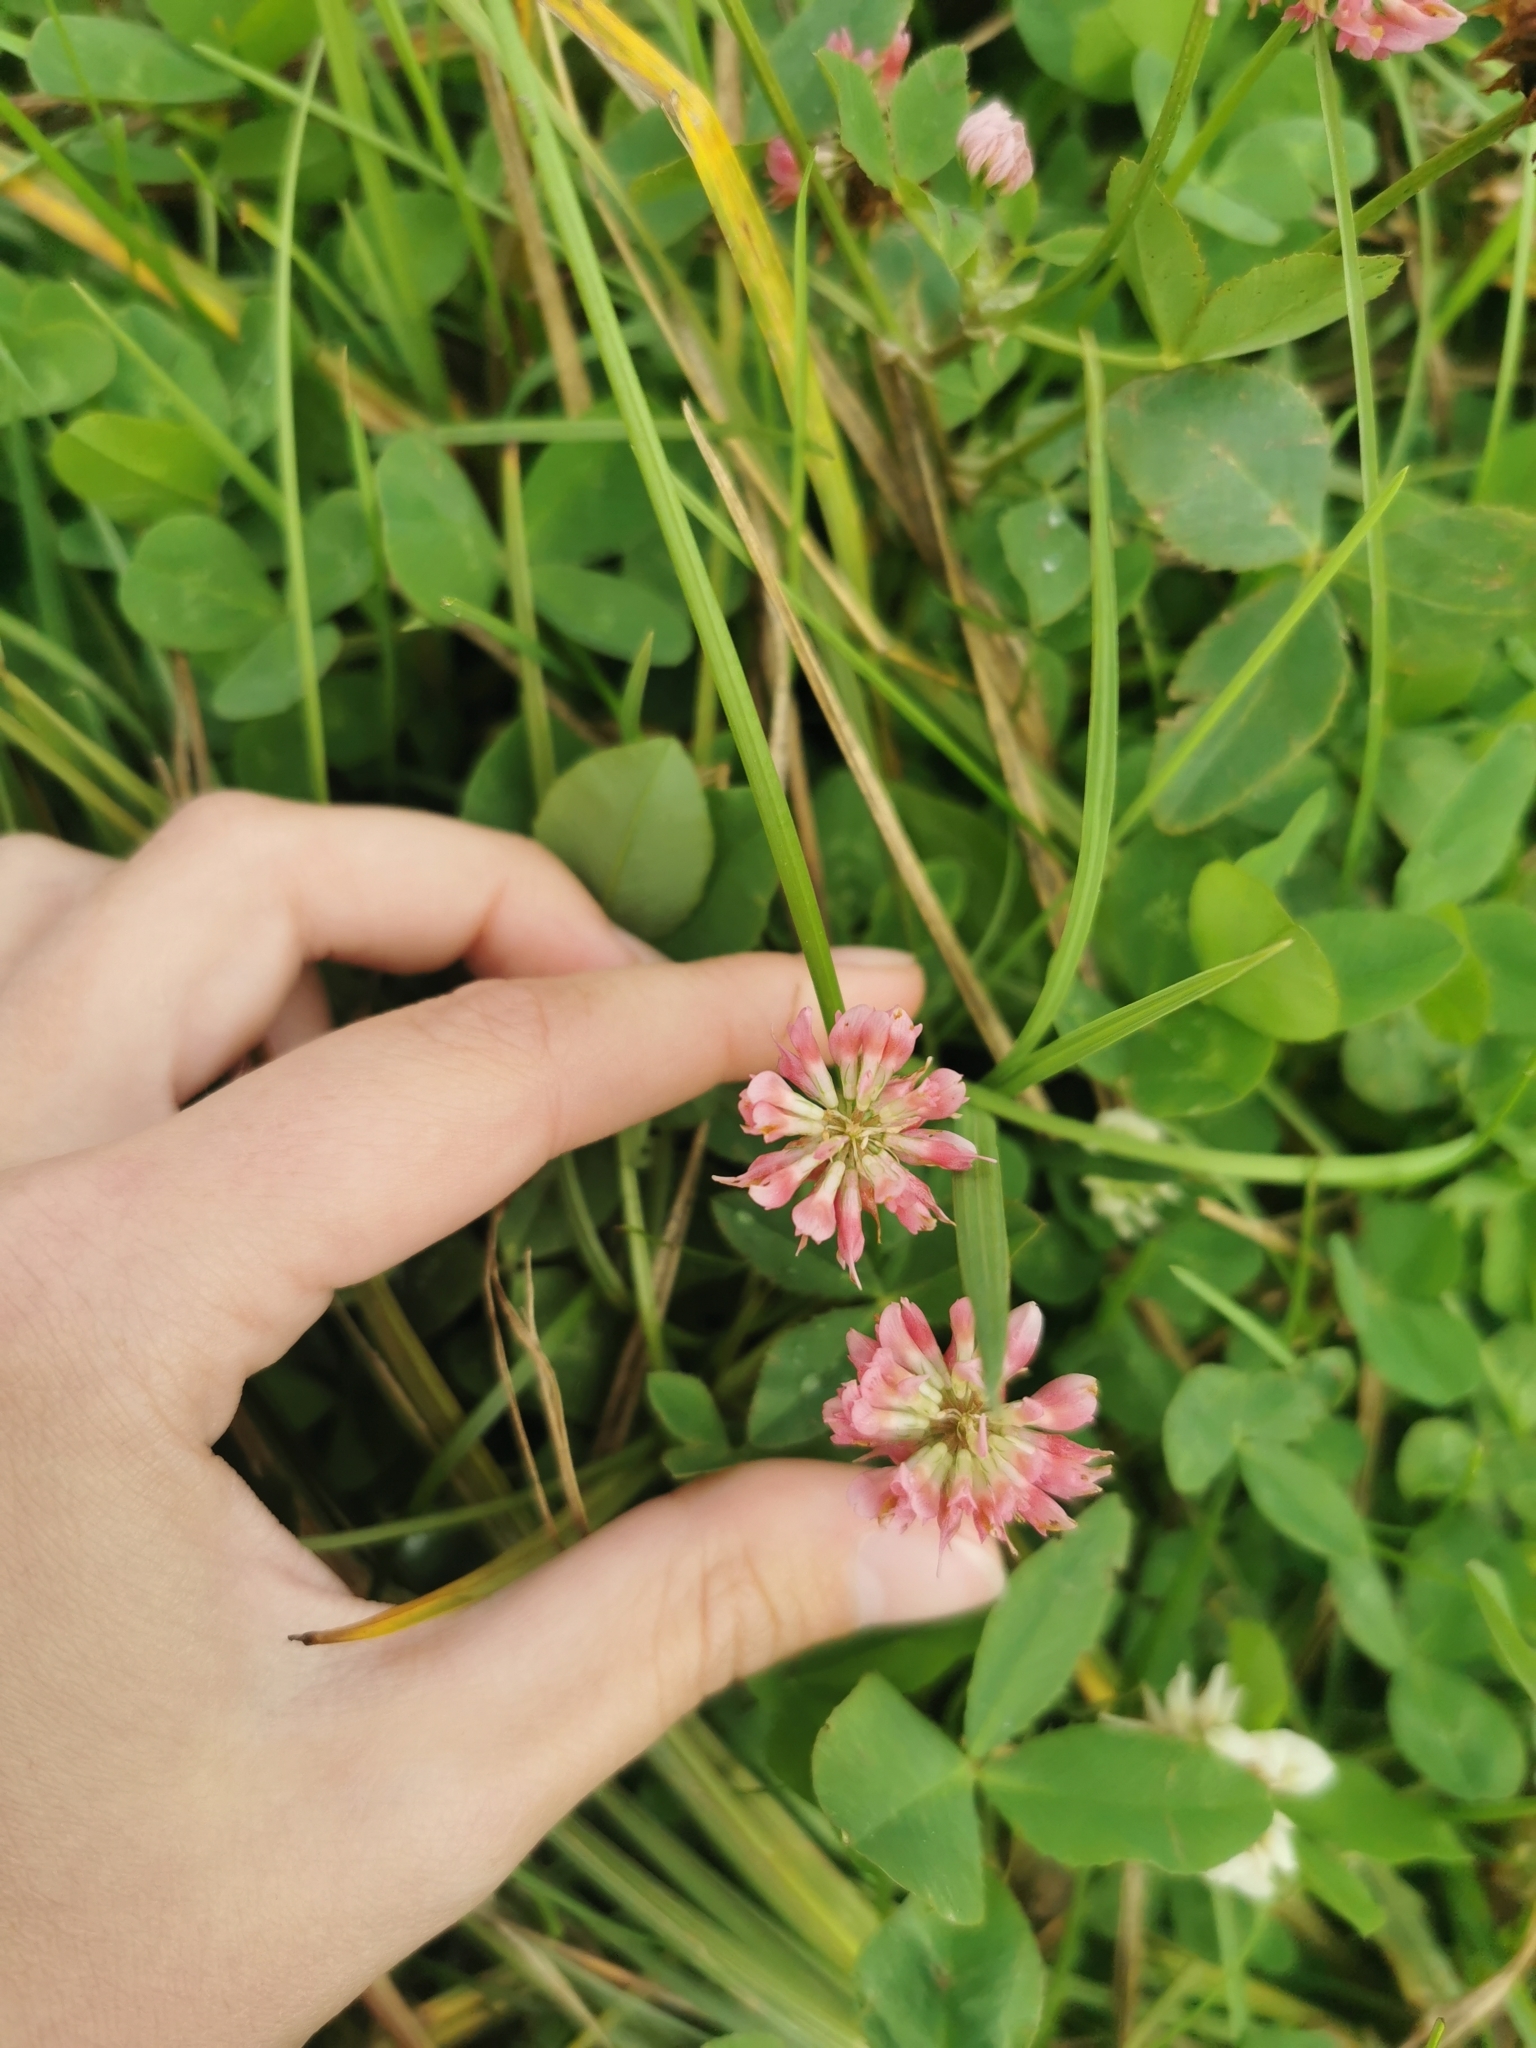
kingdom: Plantae
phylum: Tracheophyta
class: Magnoliopsida
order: Fabales
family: Fabaceae
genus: Trifolium
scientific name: Trifolium hybridum
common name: Alsike clover
